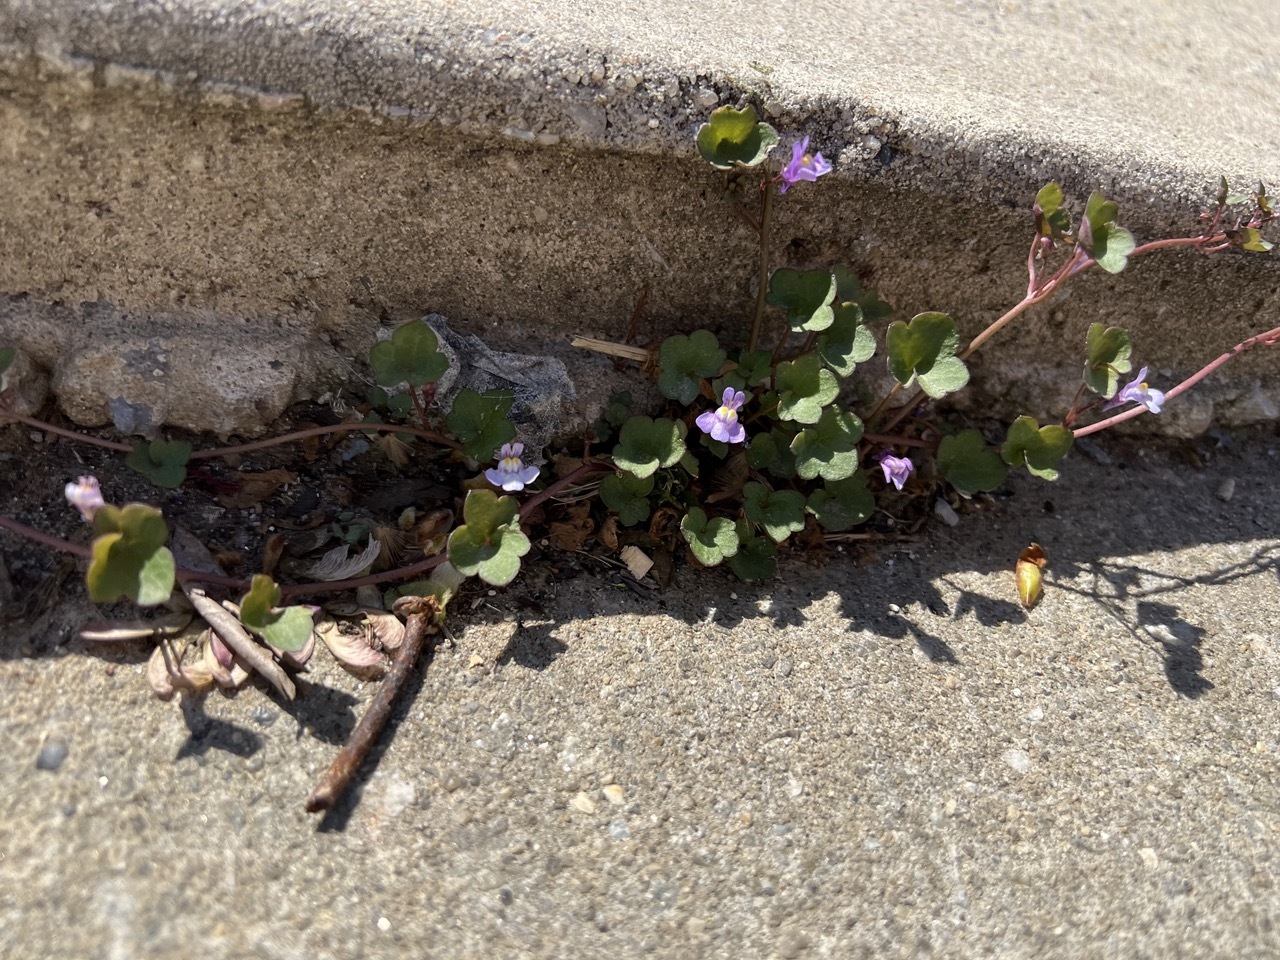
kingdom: Plantae
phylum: Tracheophyta
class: Magnoliopsida
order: Lamiales
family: Plantaginaceae
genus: Cymbalaria
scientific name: Cymbalaria muralis
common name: Ivy-leaved toadflax
